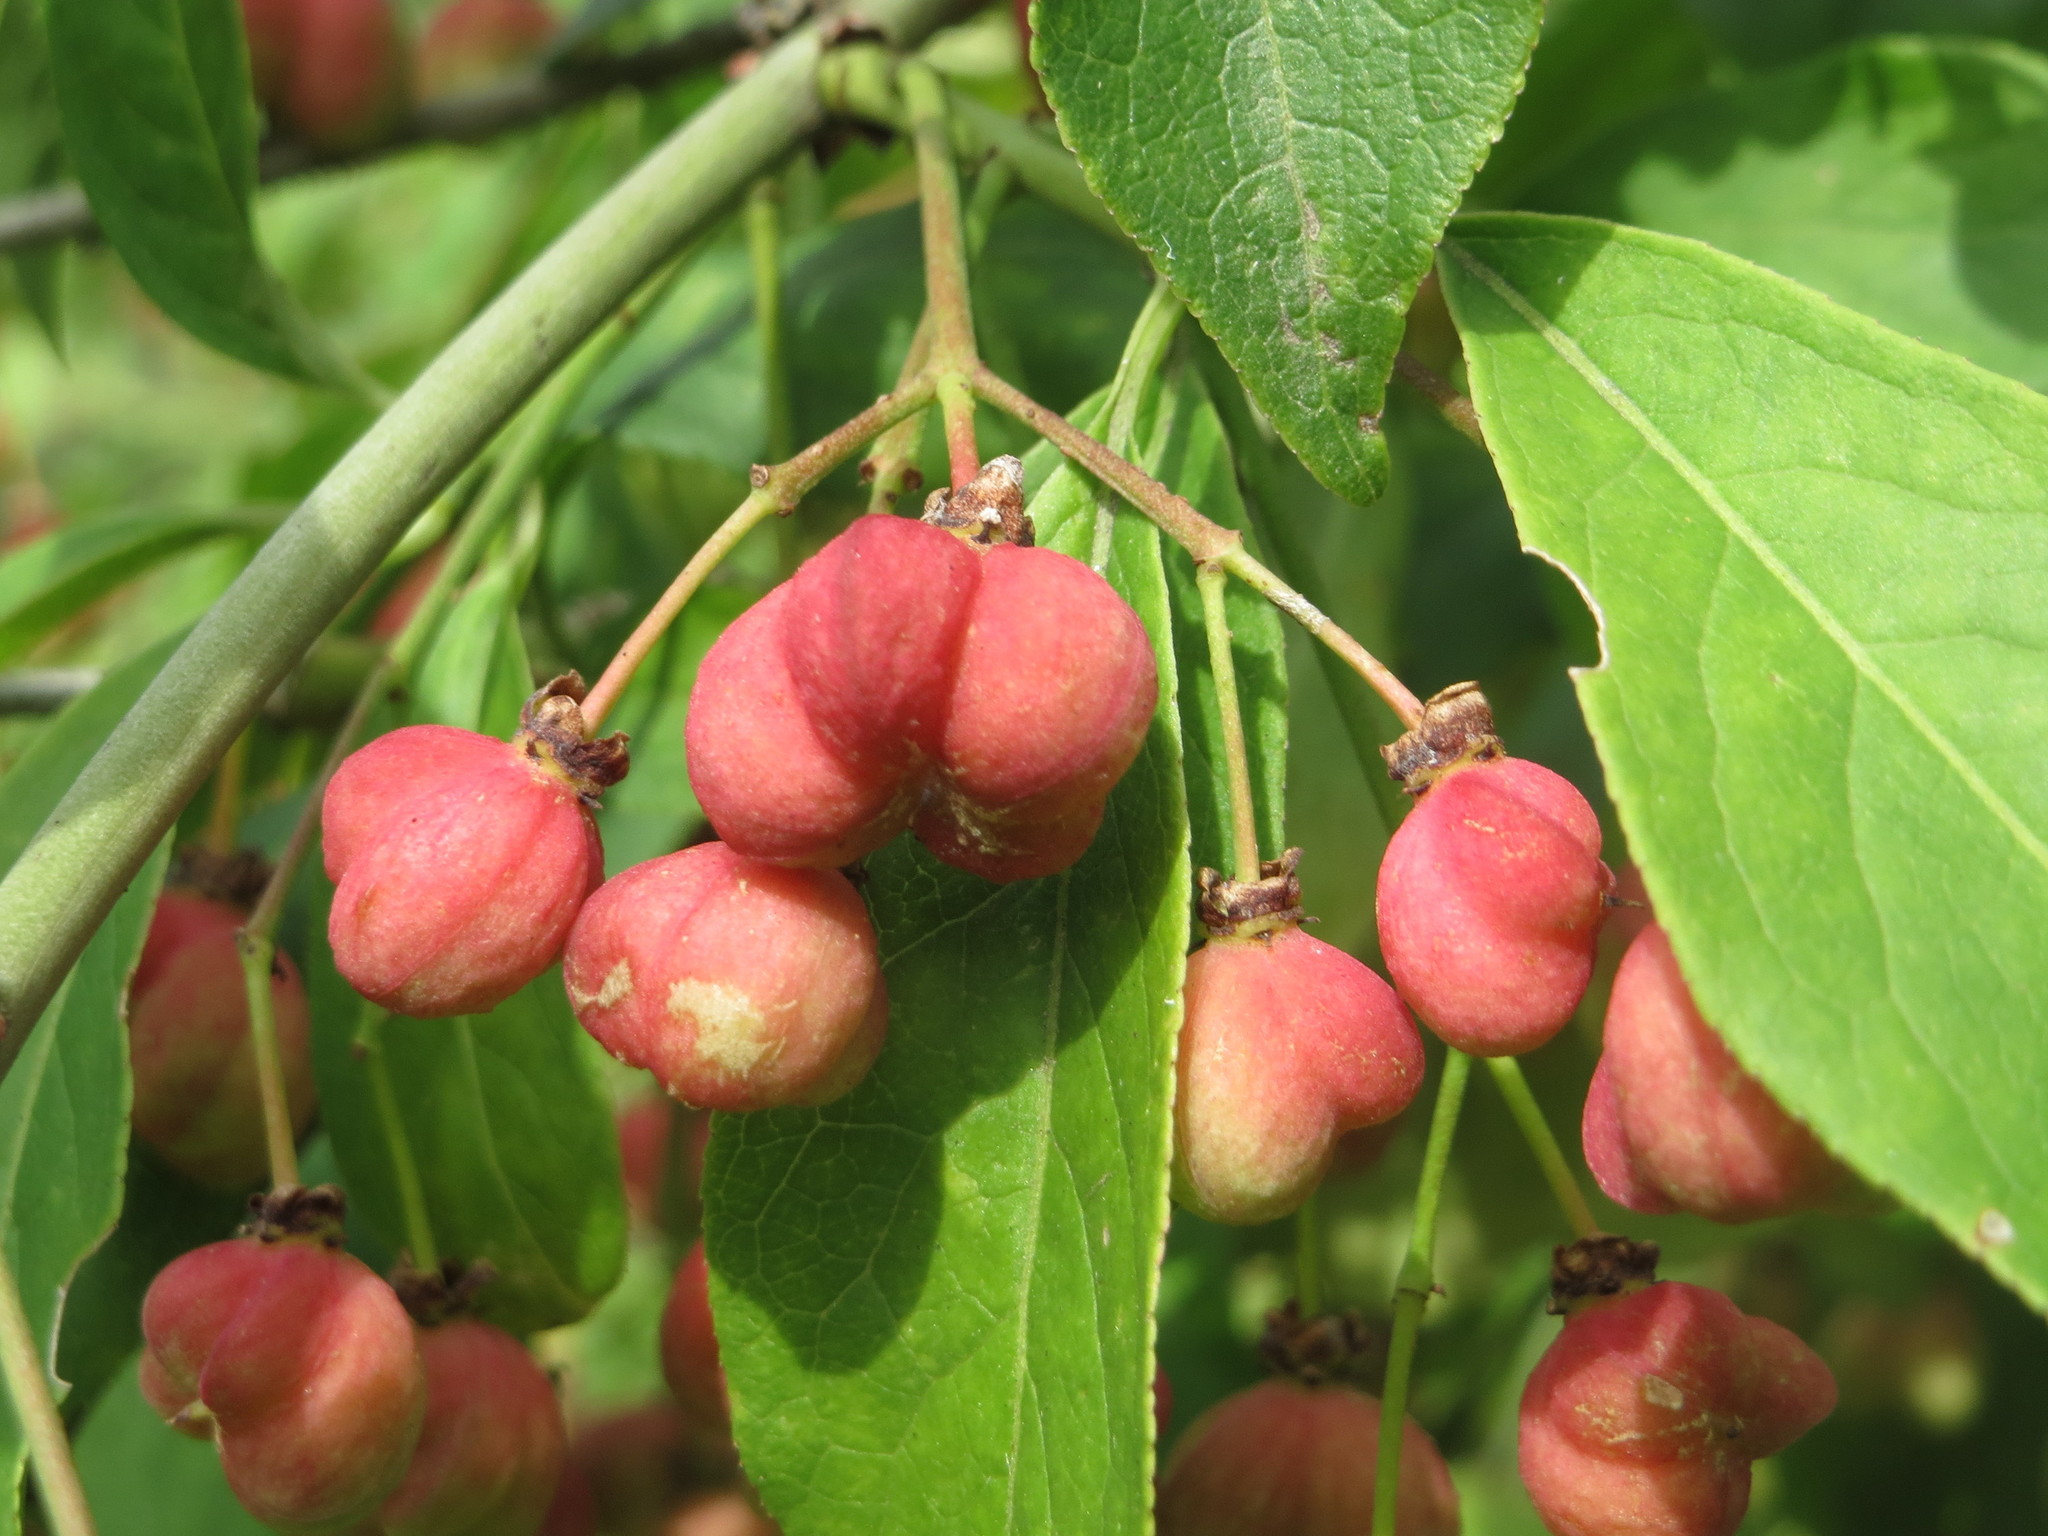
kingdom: Plantae
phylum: Tracheophyta
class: Magnoliopsida
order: Celastrales
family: Celastraceae
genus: Euonymus
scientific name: Euonymus europaeus
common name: Spindle
